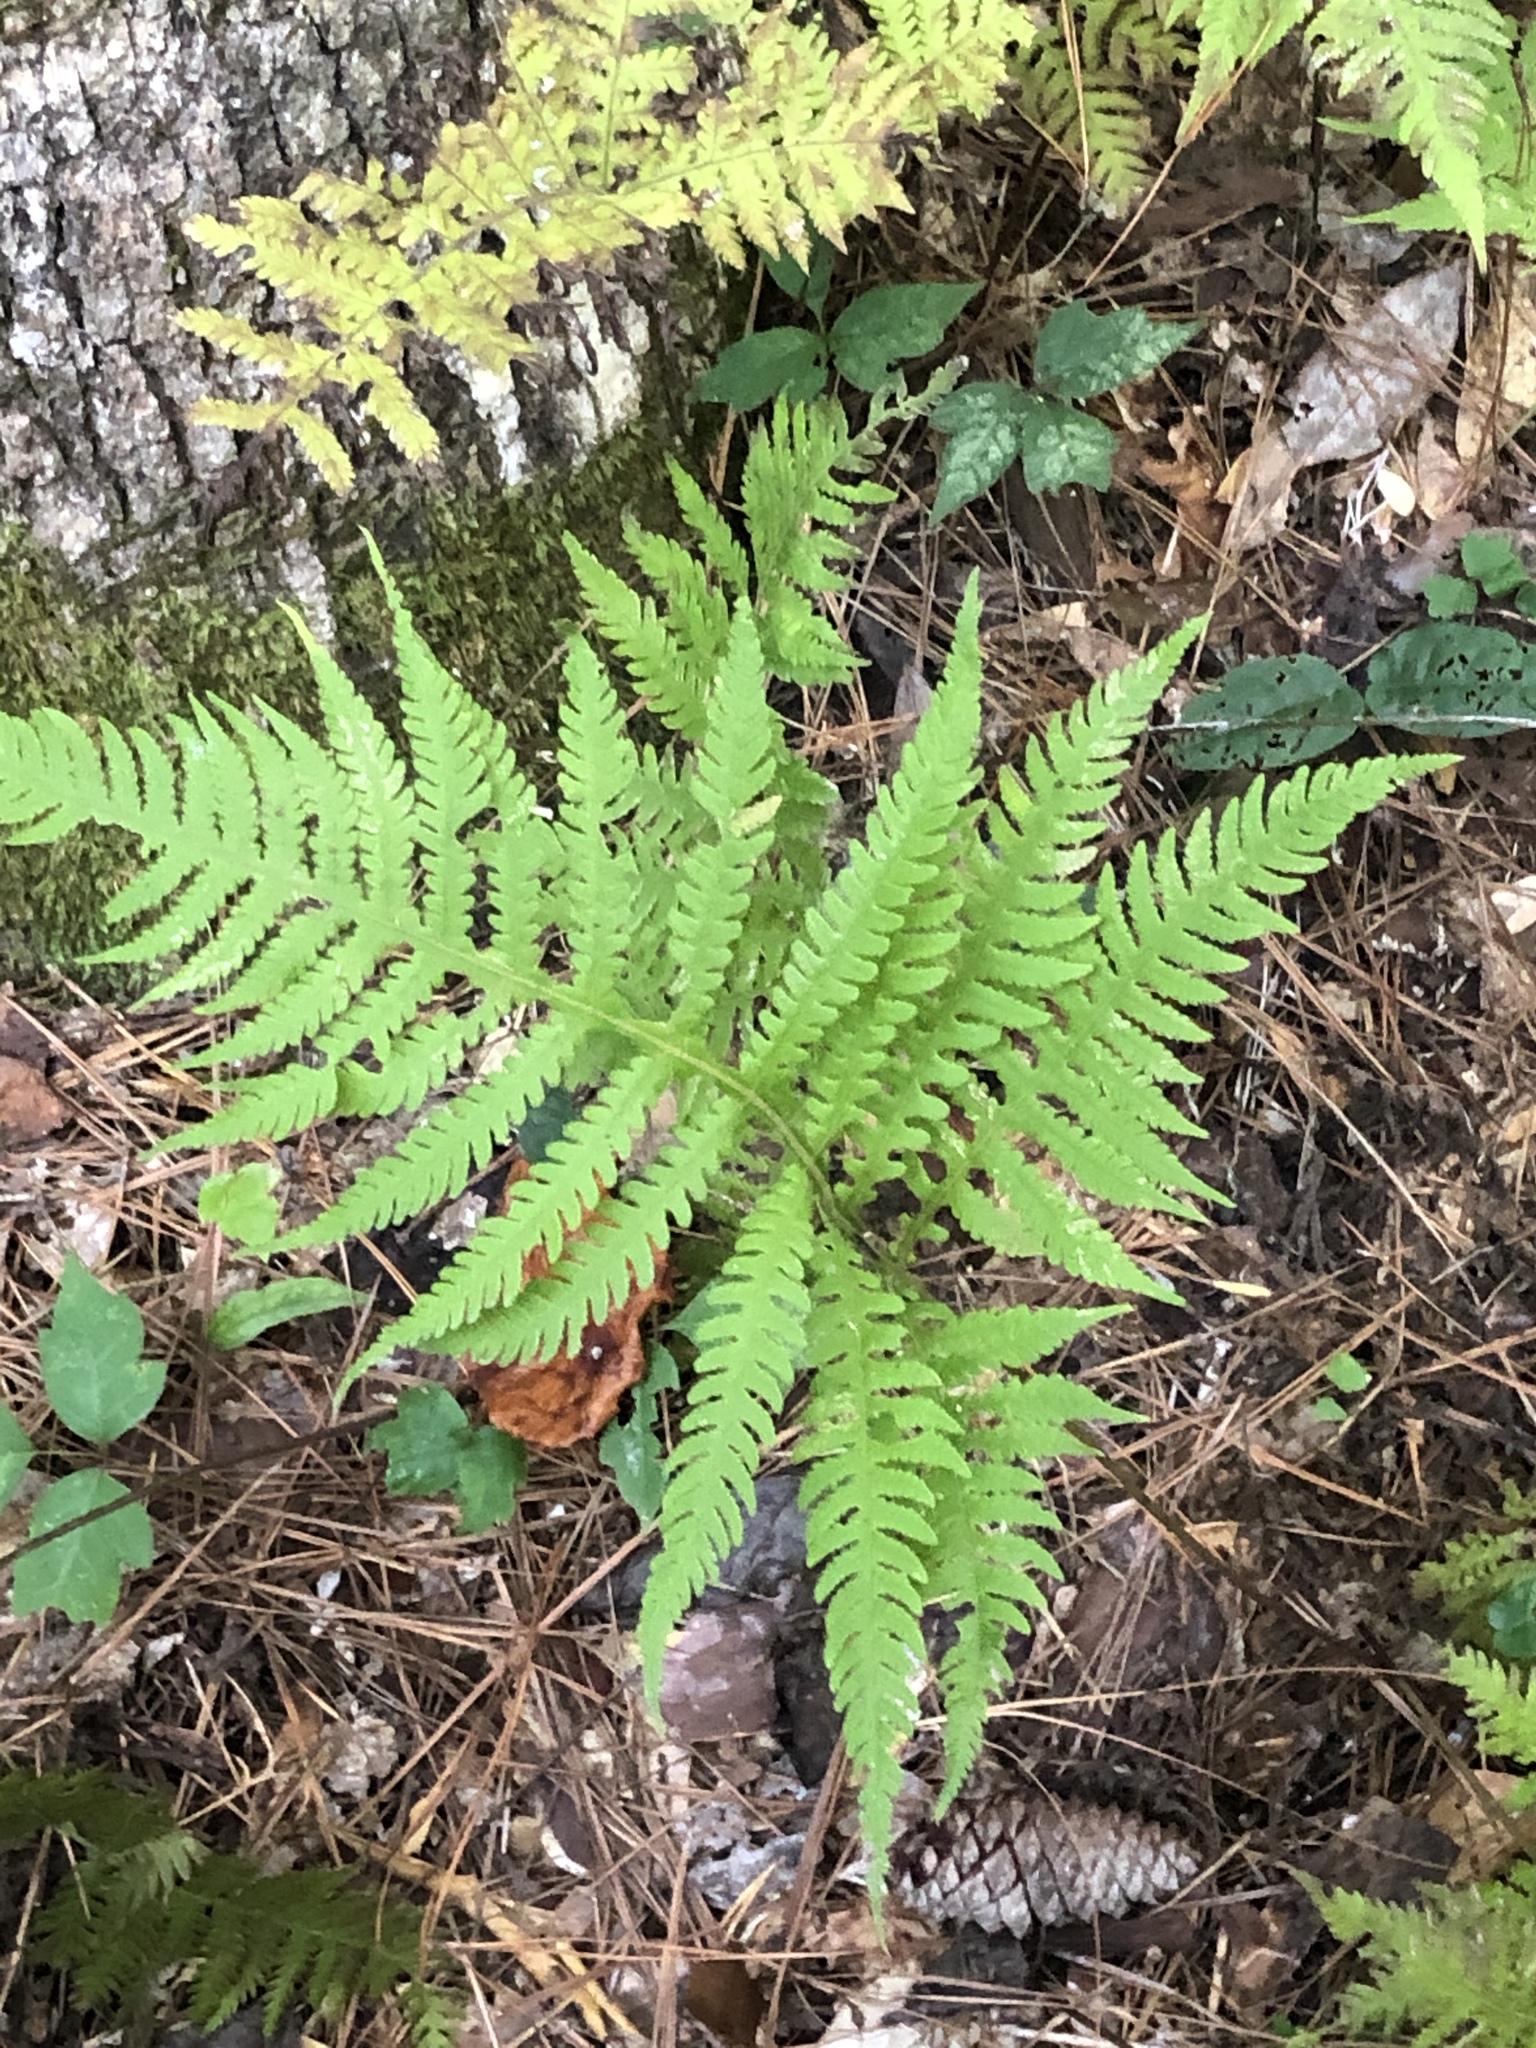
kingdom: Plantae
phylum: Tracheophyta
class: Polypodiopsida
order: Polypodiales
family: Thelypteridaceae
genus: Phegopteris
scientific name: Phegopteris hexagonoptera
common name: Broad beech fern
